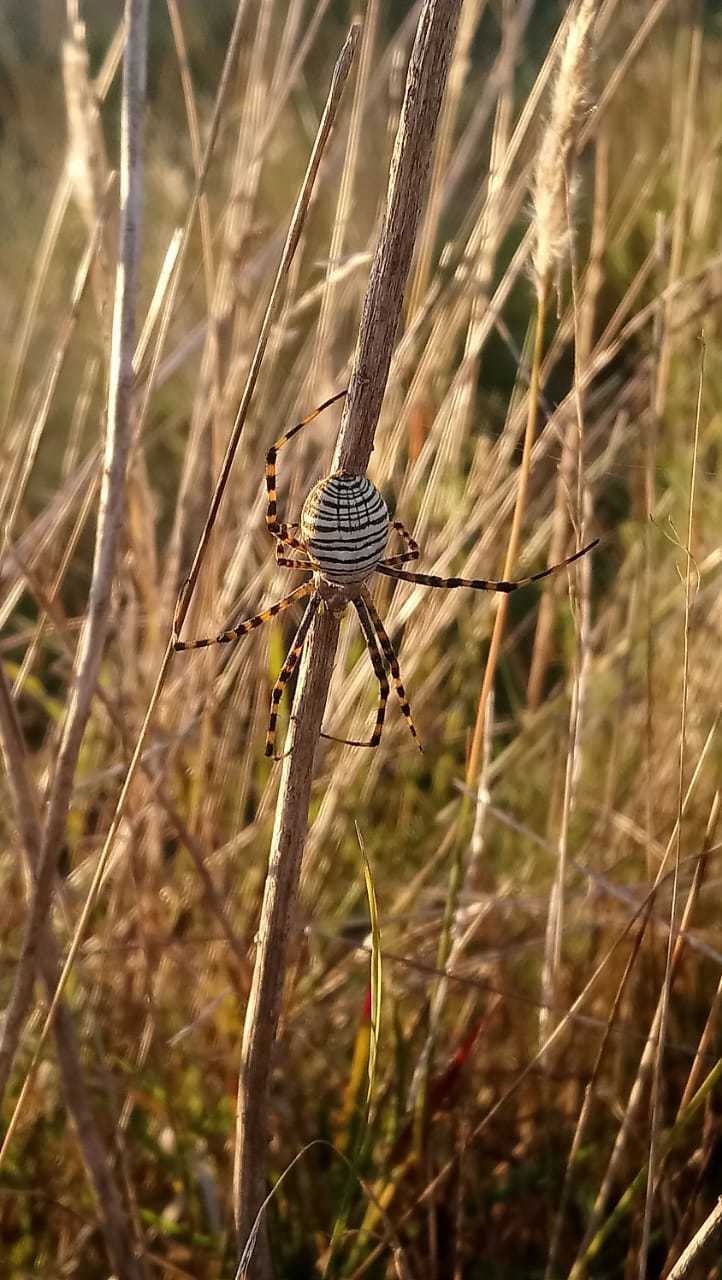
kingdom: Animalia
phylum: Arthropoda
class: Arachnida
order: Araneae
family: Araneidae
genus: Argiope
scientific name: Argiope trifasciata
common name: Banded garden spider
